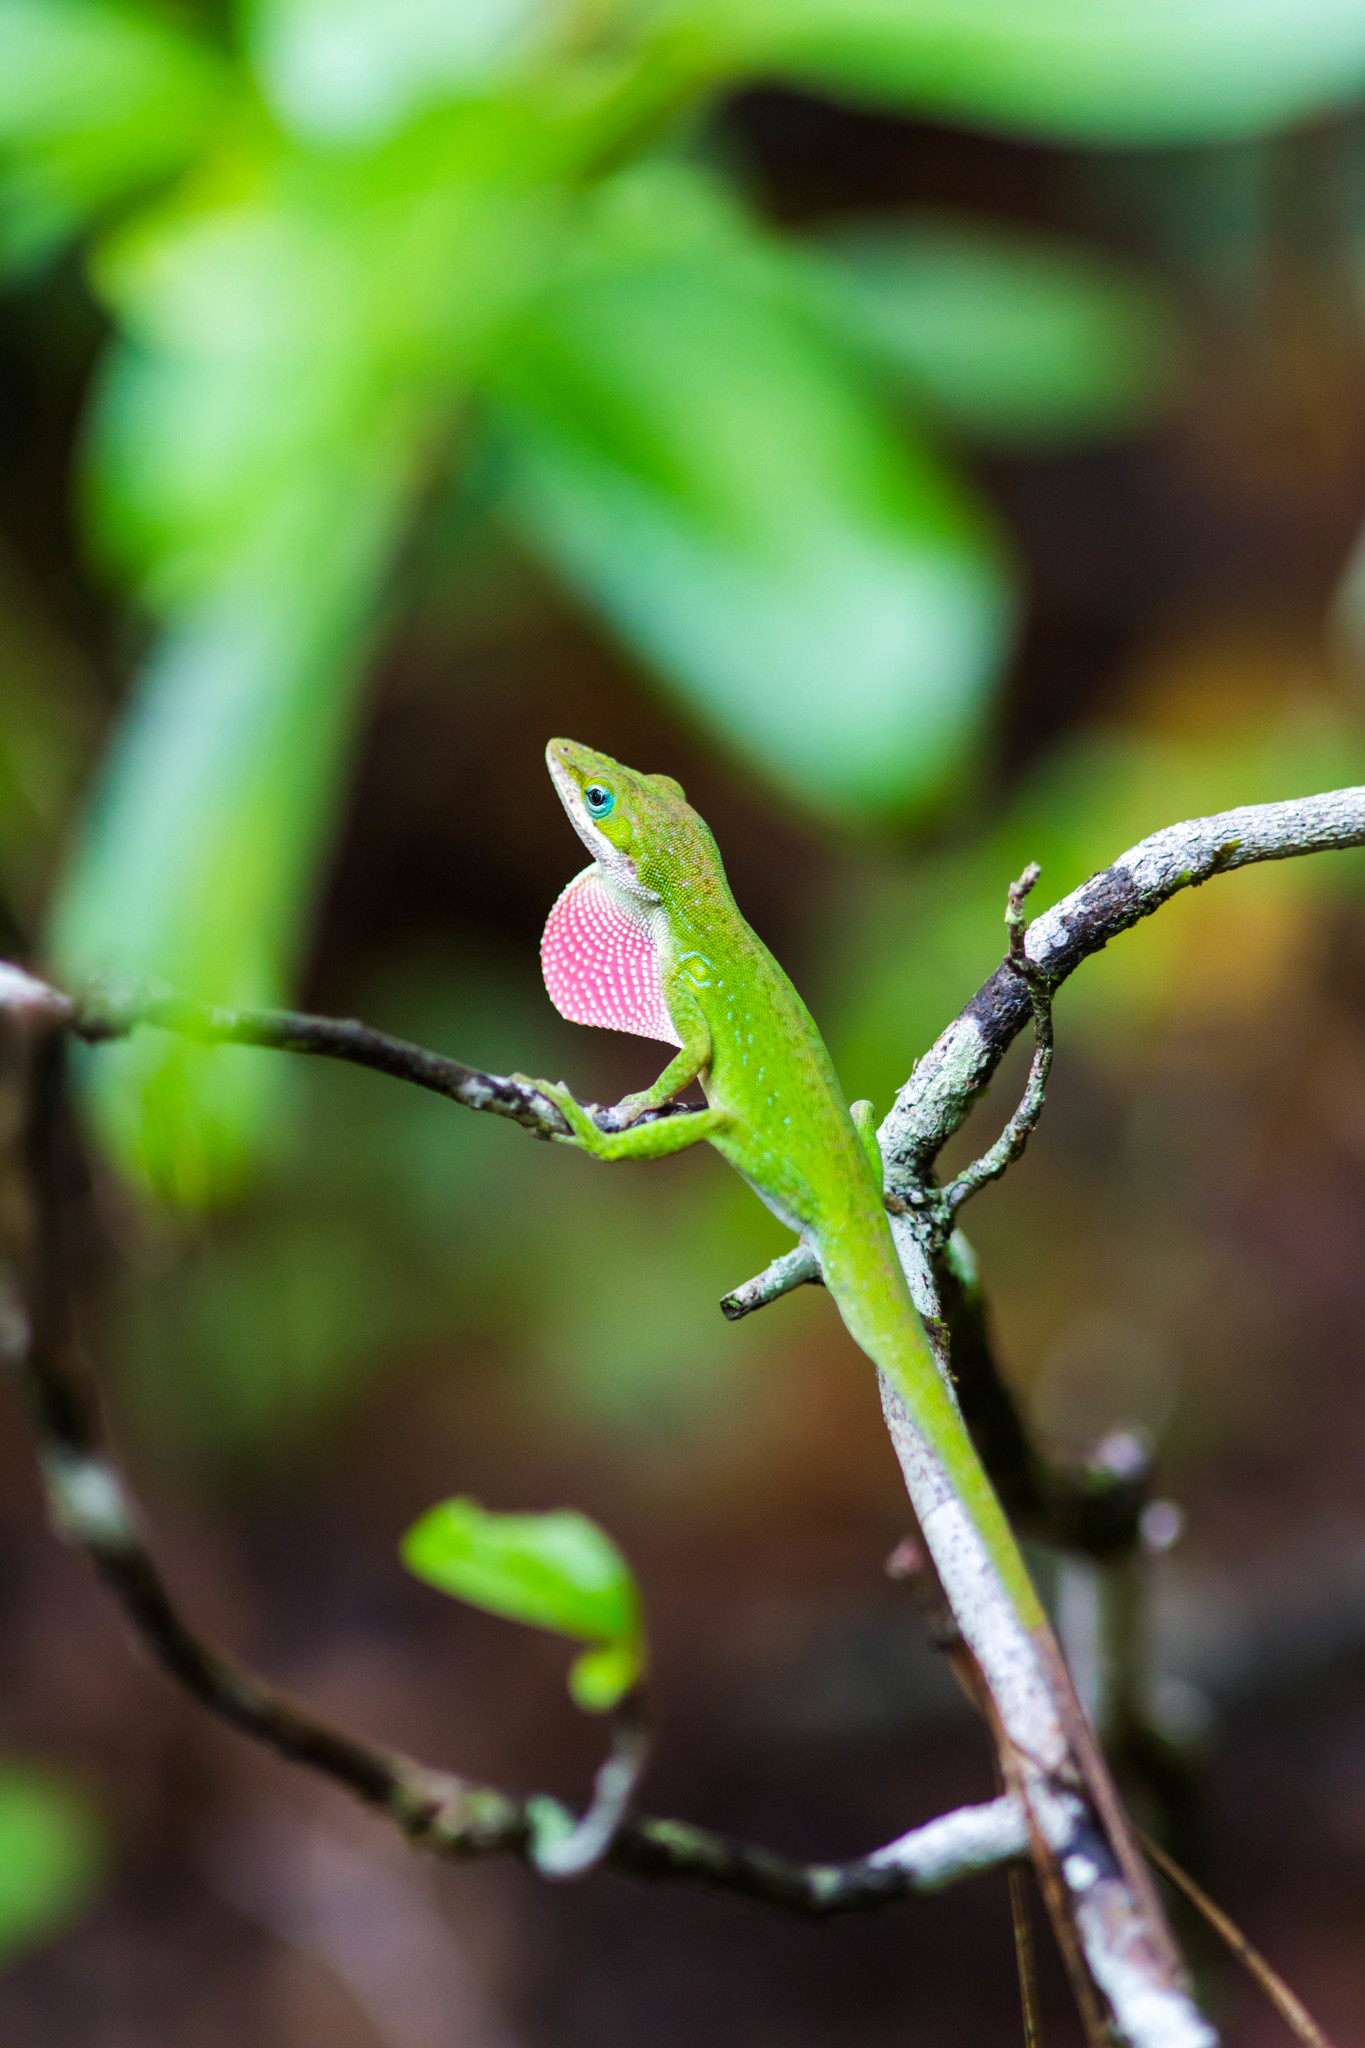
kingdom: Animalia
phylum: Chordata
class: Squamata
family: Dactyloidae
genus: Anolis
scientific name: Anolis carolinensis
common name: Green anole
